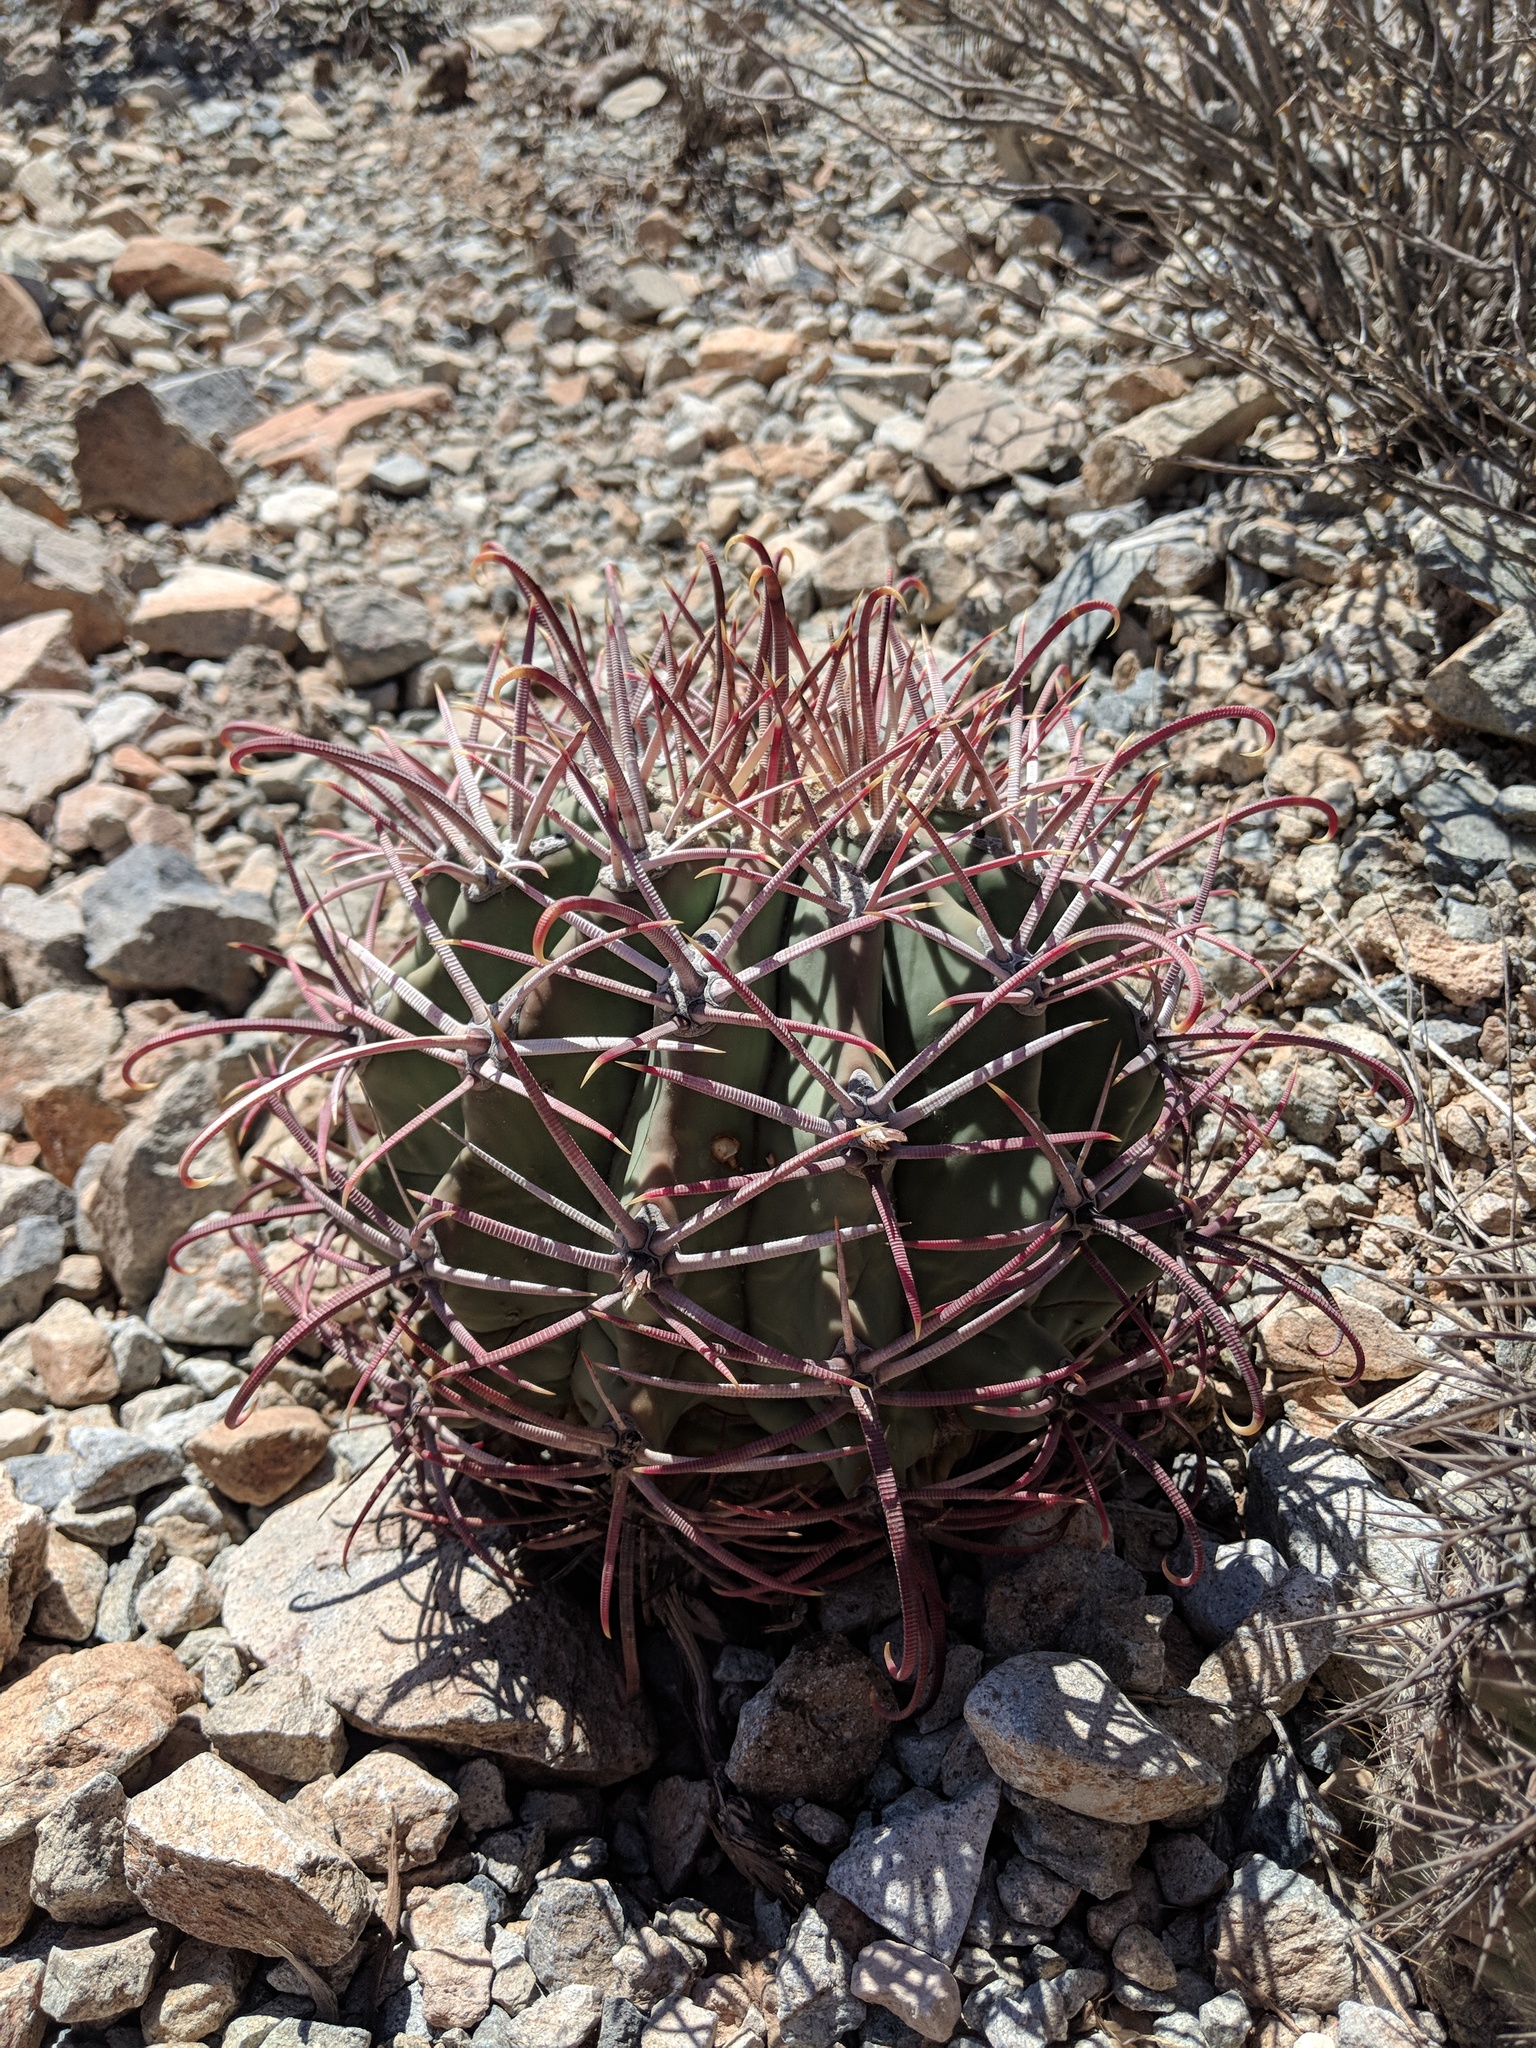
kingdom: Plantae
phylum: Tracheophyta
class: Magnoliopsida
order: Caryophyllales
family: Cactaceae
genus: Ferocactus
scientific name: Ferocactus emoryi
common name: Emory's barrel cactus
